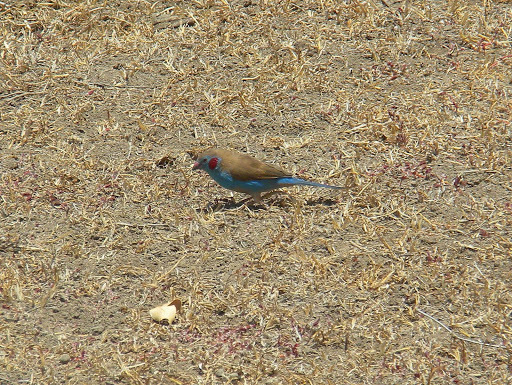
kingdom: Animalia
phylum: Chordata
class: Aves
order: Passeriformes
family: Estrildidae
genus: Uraeginthus
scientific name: Uraeginthus bengalus
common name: Red-cheeked cordon-bleu
